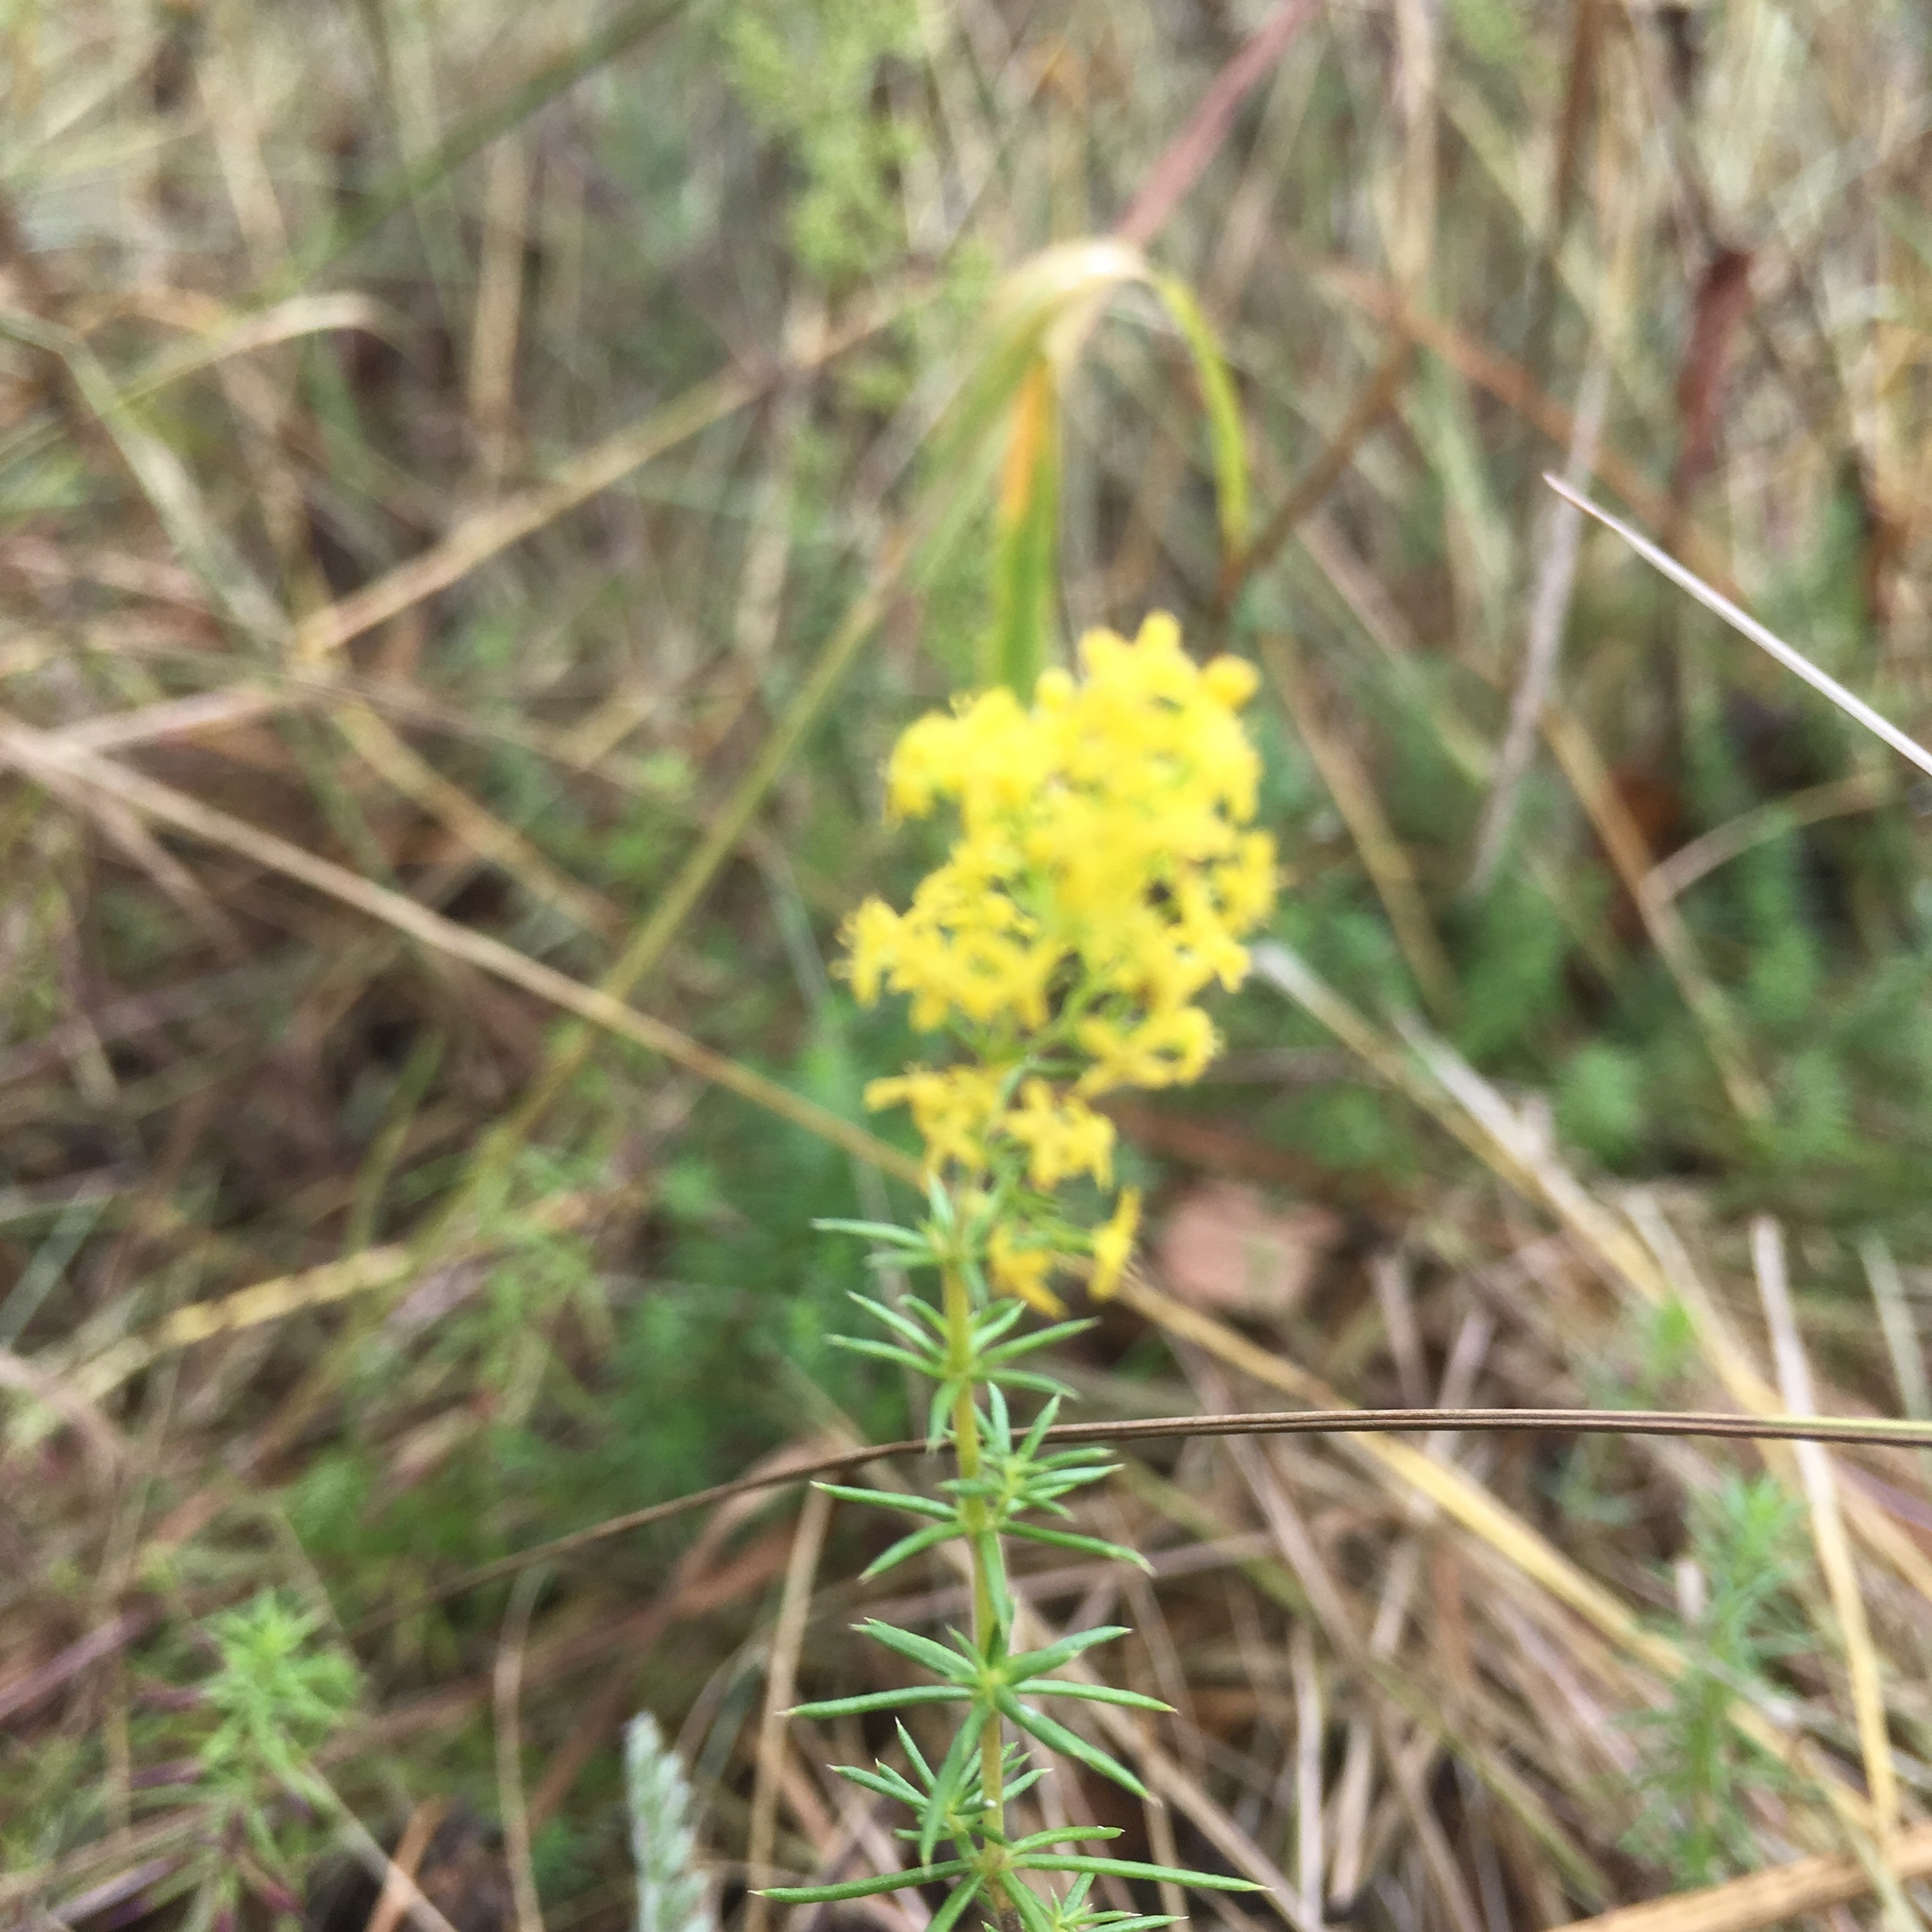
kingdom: Plantae
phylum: Tracheophyta
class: Magnoliopsida
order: Gentianales
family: Rubiaceae
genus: Galium
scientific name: Galium verum
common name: Lady's bedstraw
